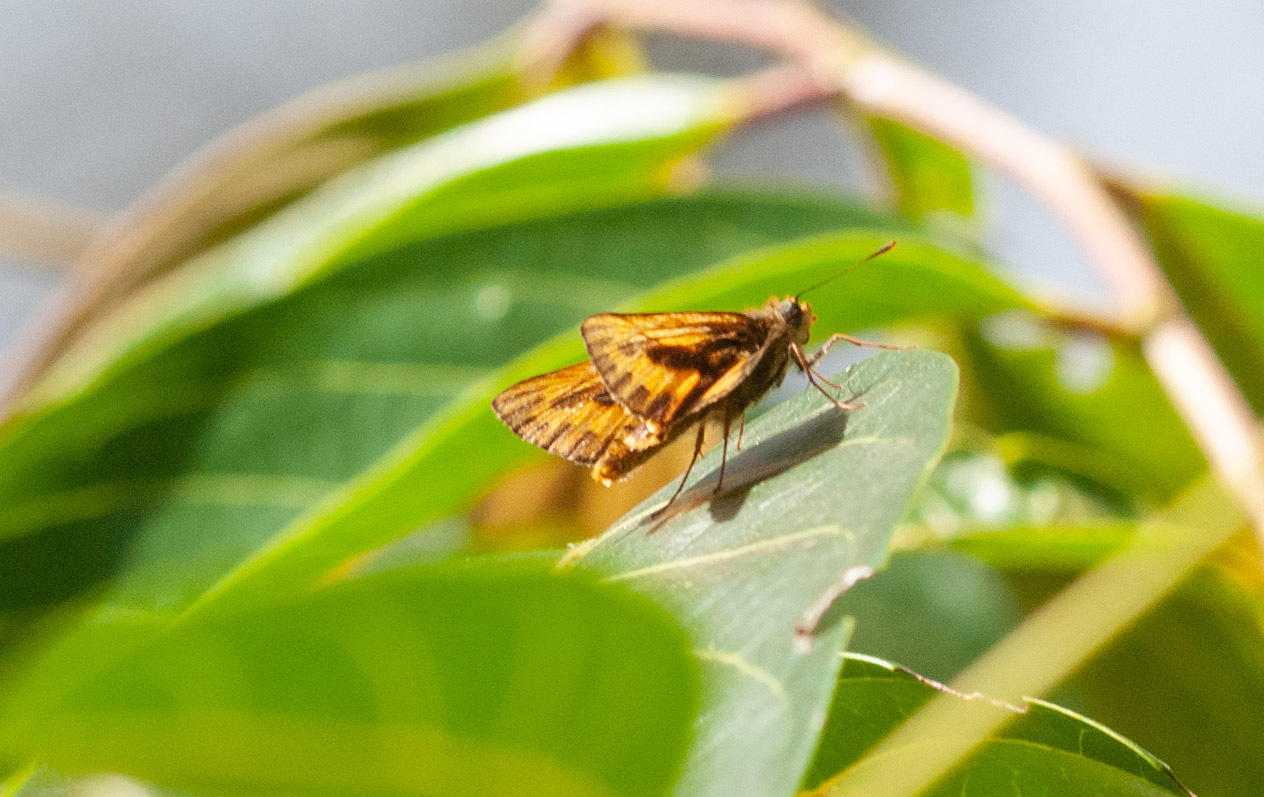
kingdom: Animalia
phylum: Arthropoda
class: Insecta
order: Lepidoptera
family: Hesperiidae
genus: Telicota
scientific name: Telicota colon
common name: Pale palm dart
